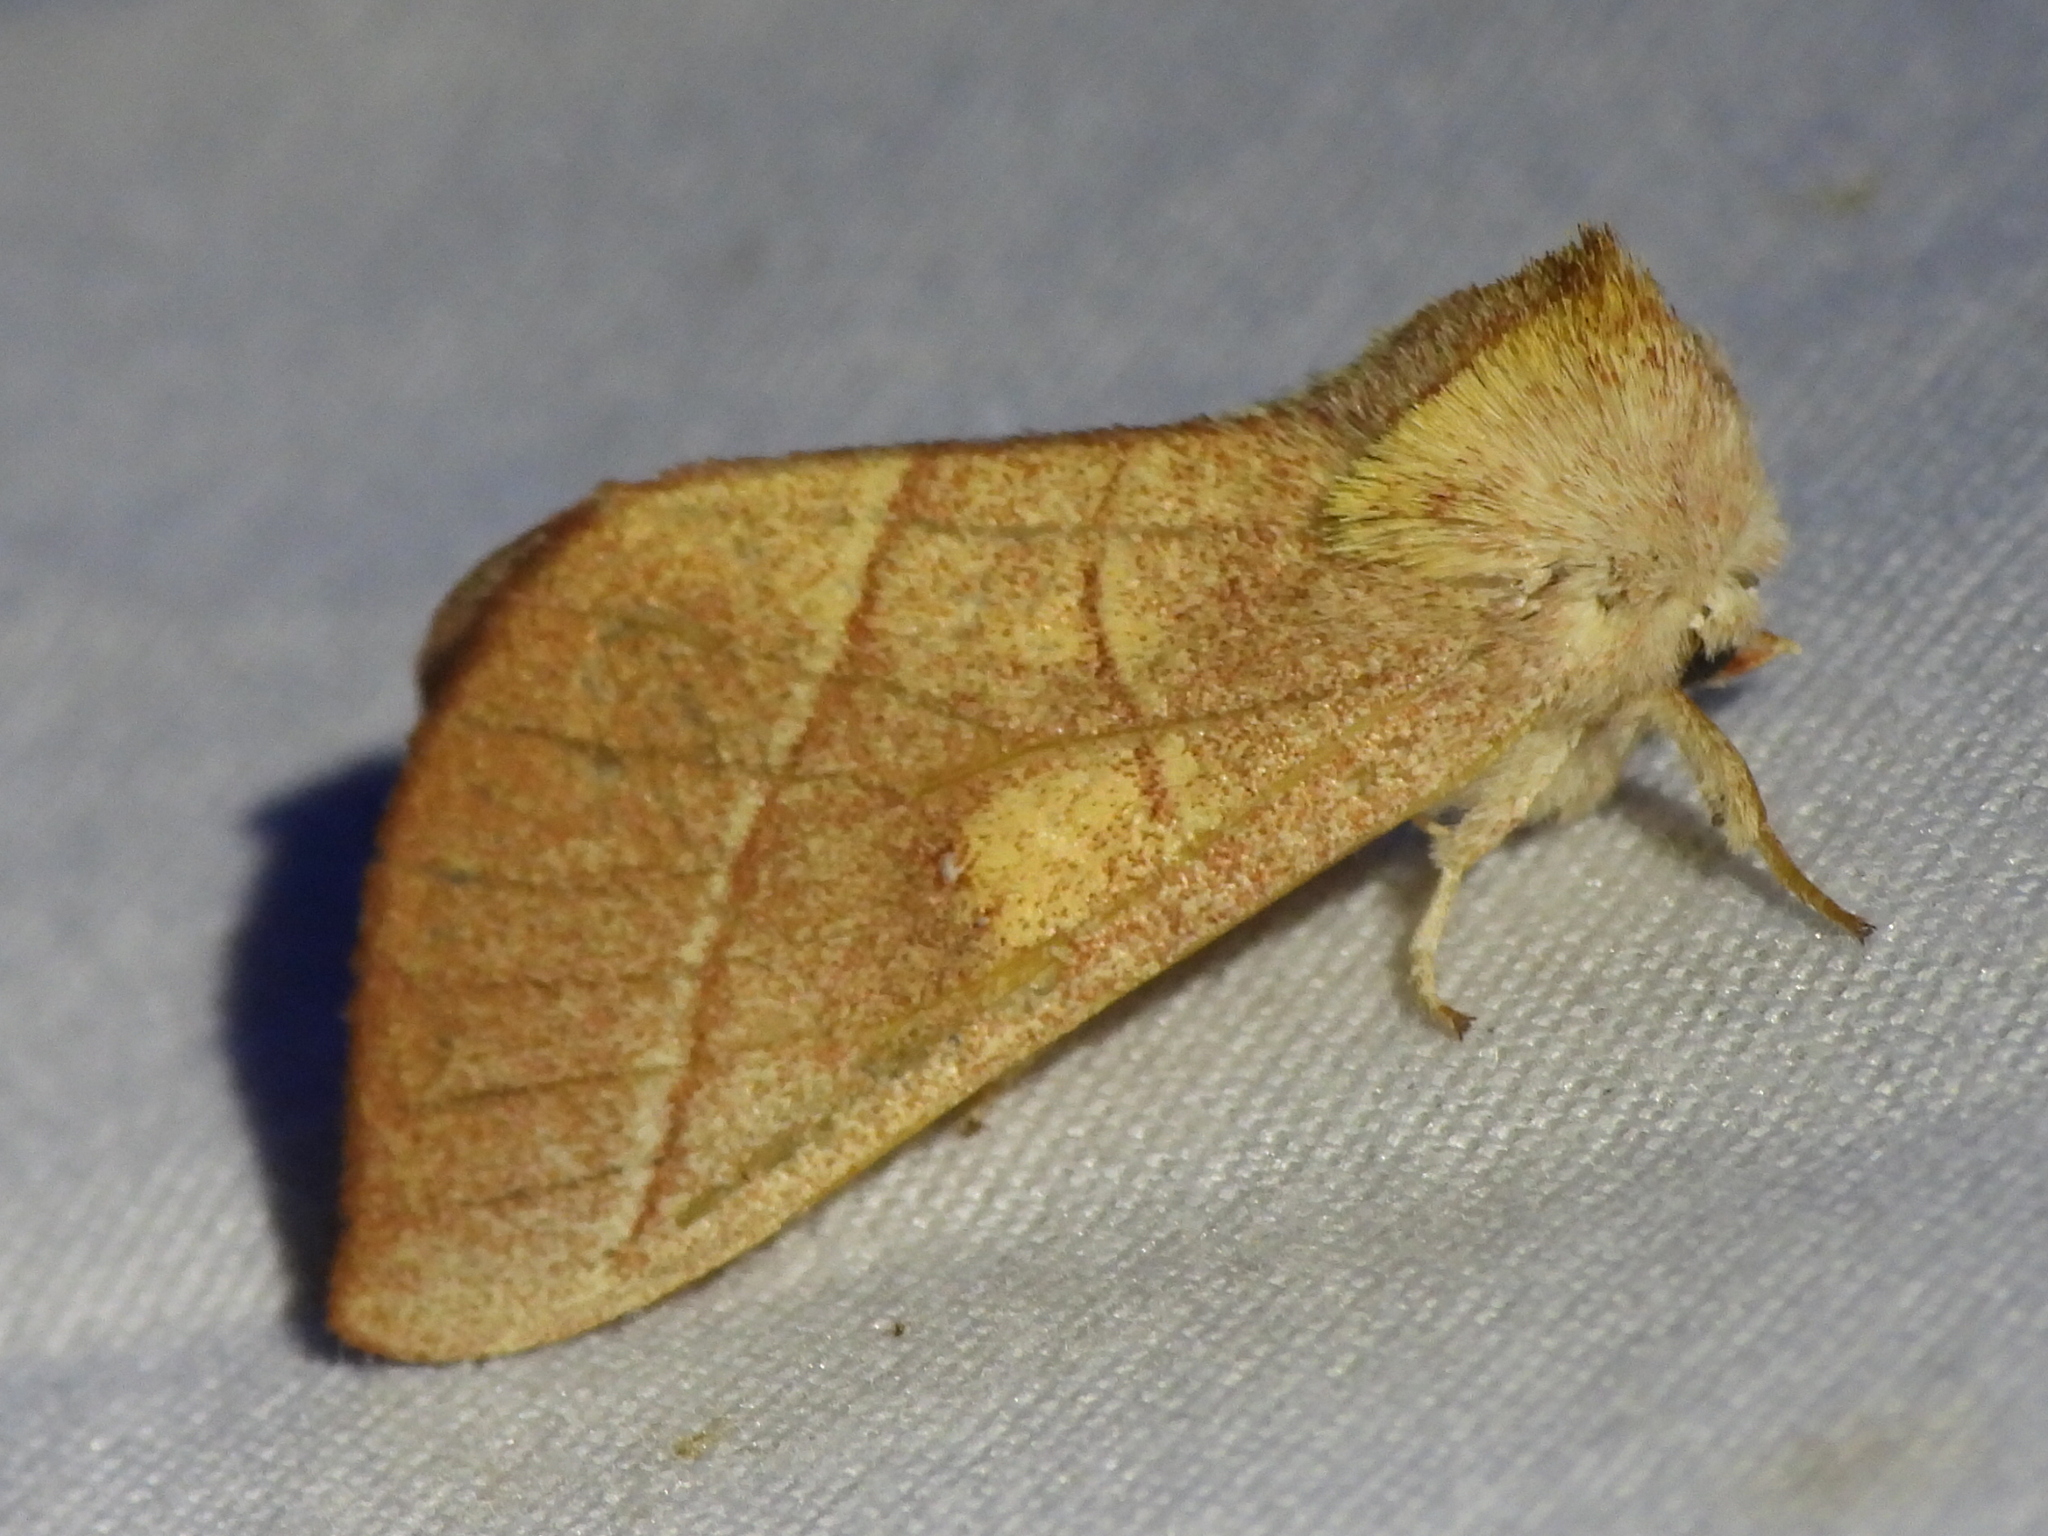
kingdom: Animalia
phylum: Arthropoda
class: Insecta
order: Lepidoptera
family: Notodontidae
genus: Nadata
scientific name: Nadata gibbosa
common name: White-dotted prominent
